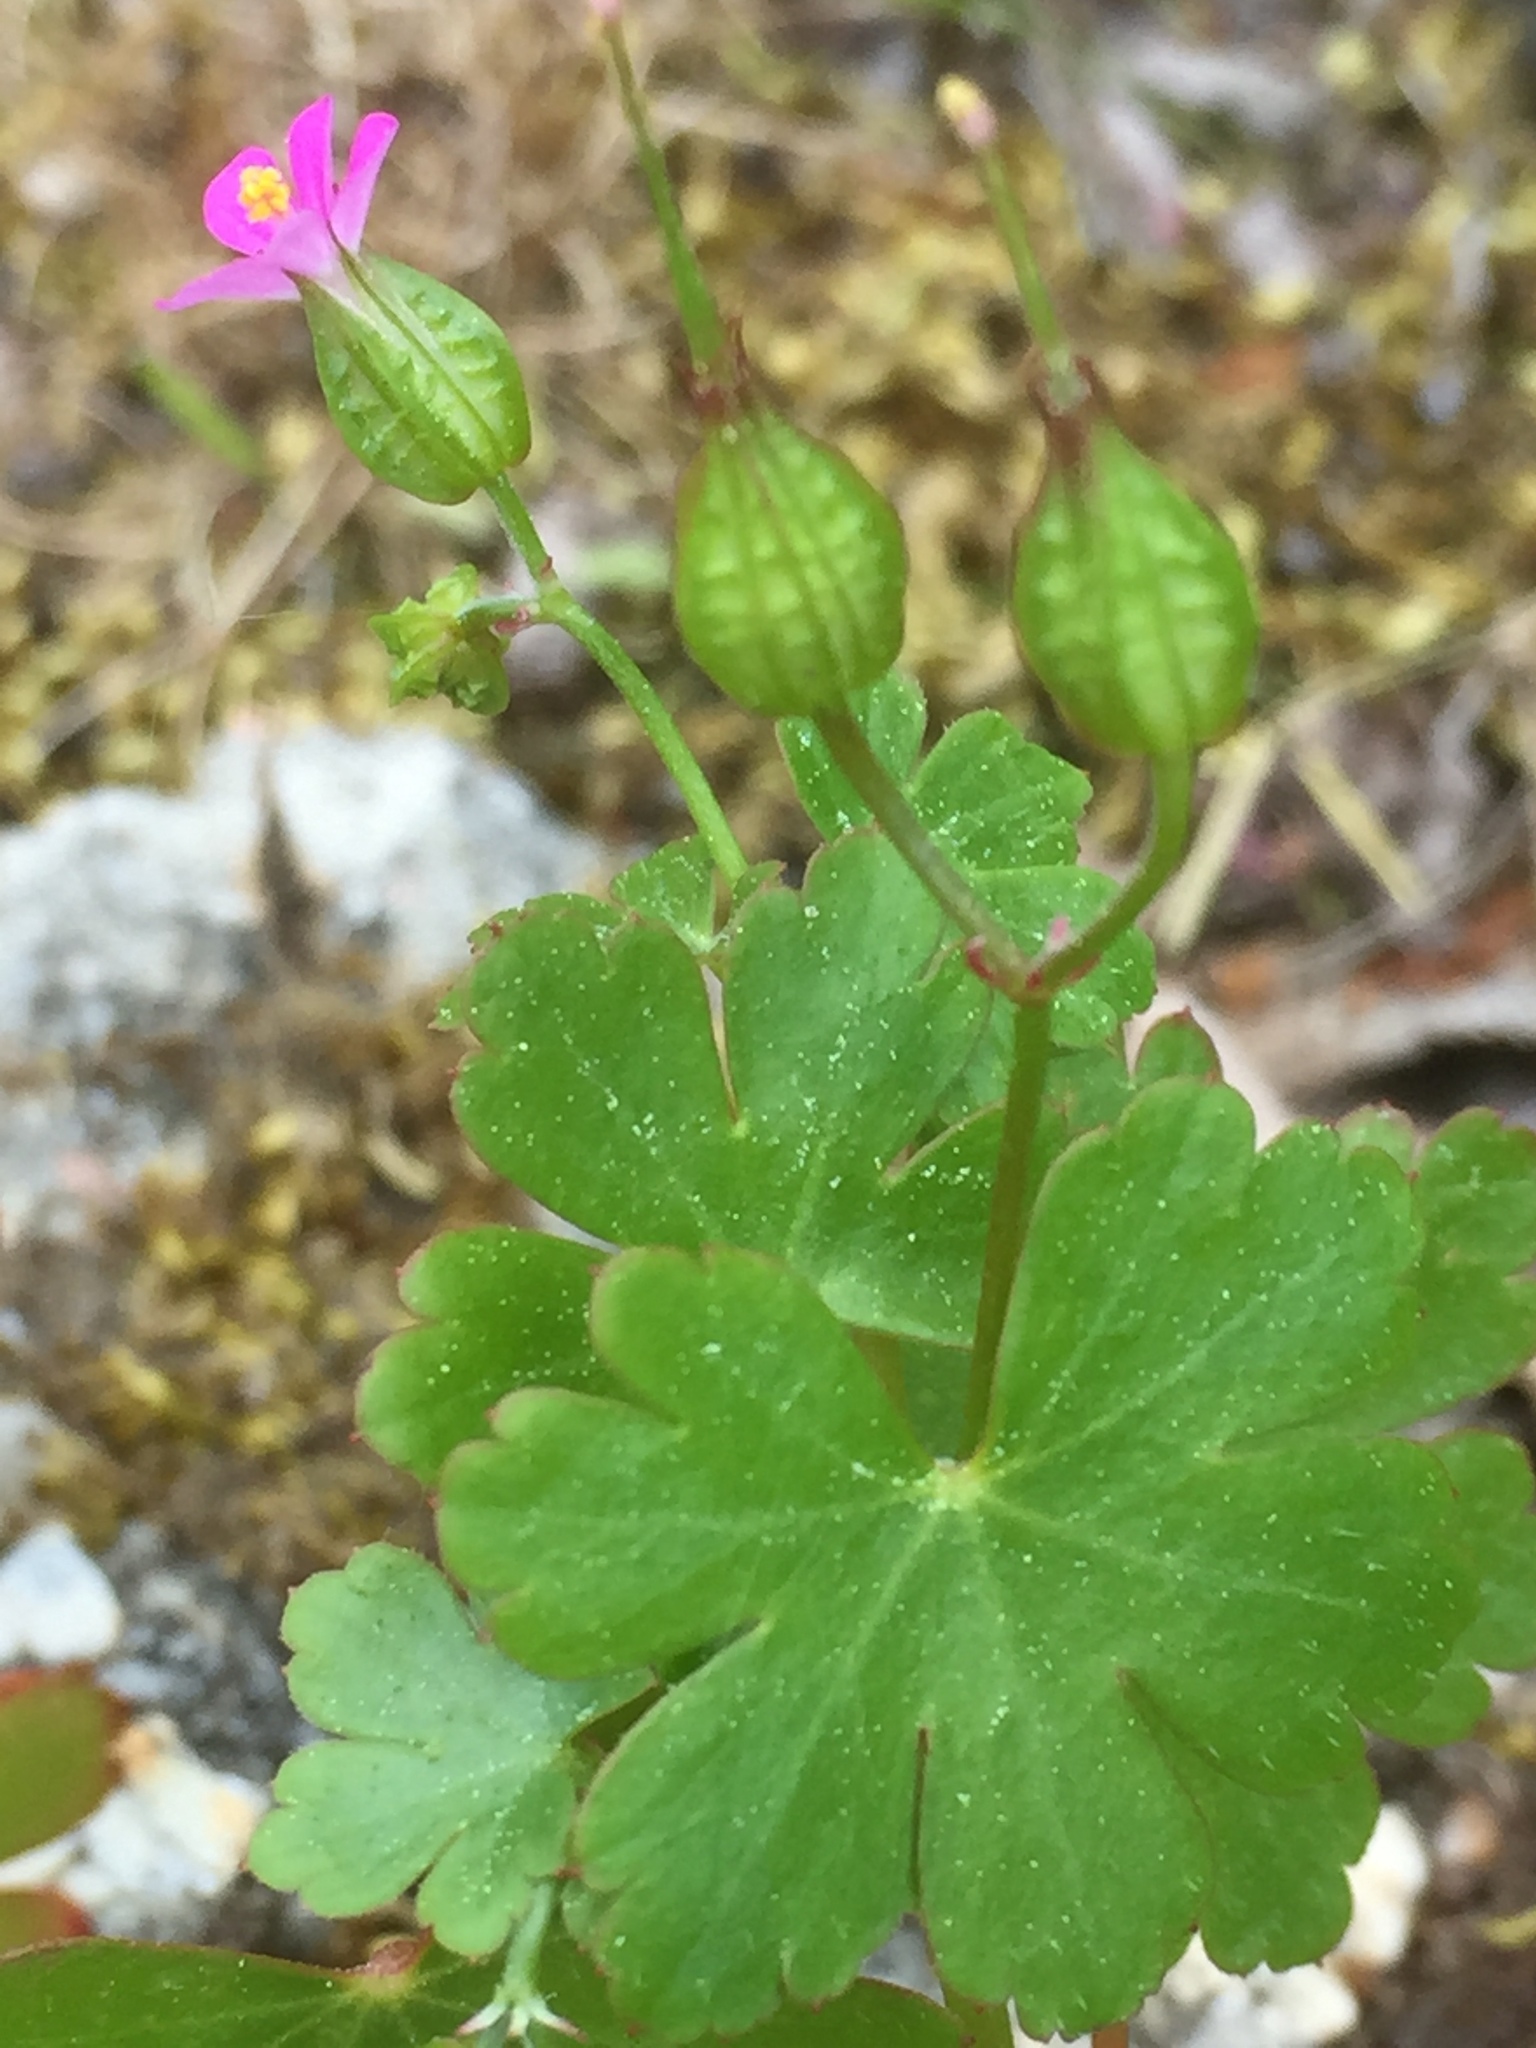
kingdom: Plantae
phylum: Tracheophyta
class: Magnoliopsida
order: Geraniales
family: Geraniaceae
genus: Geranium
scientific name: Geranium lucidum
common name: Shining crane's-bill
